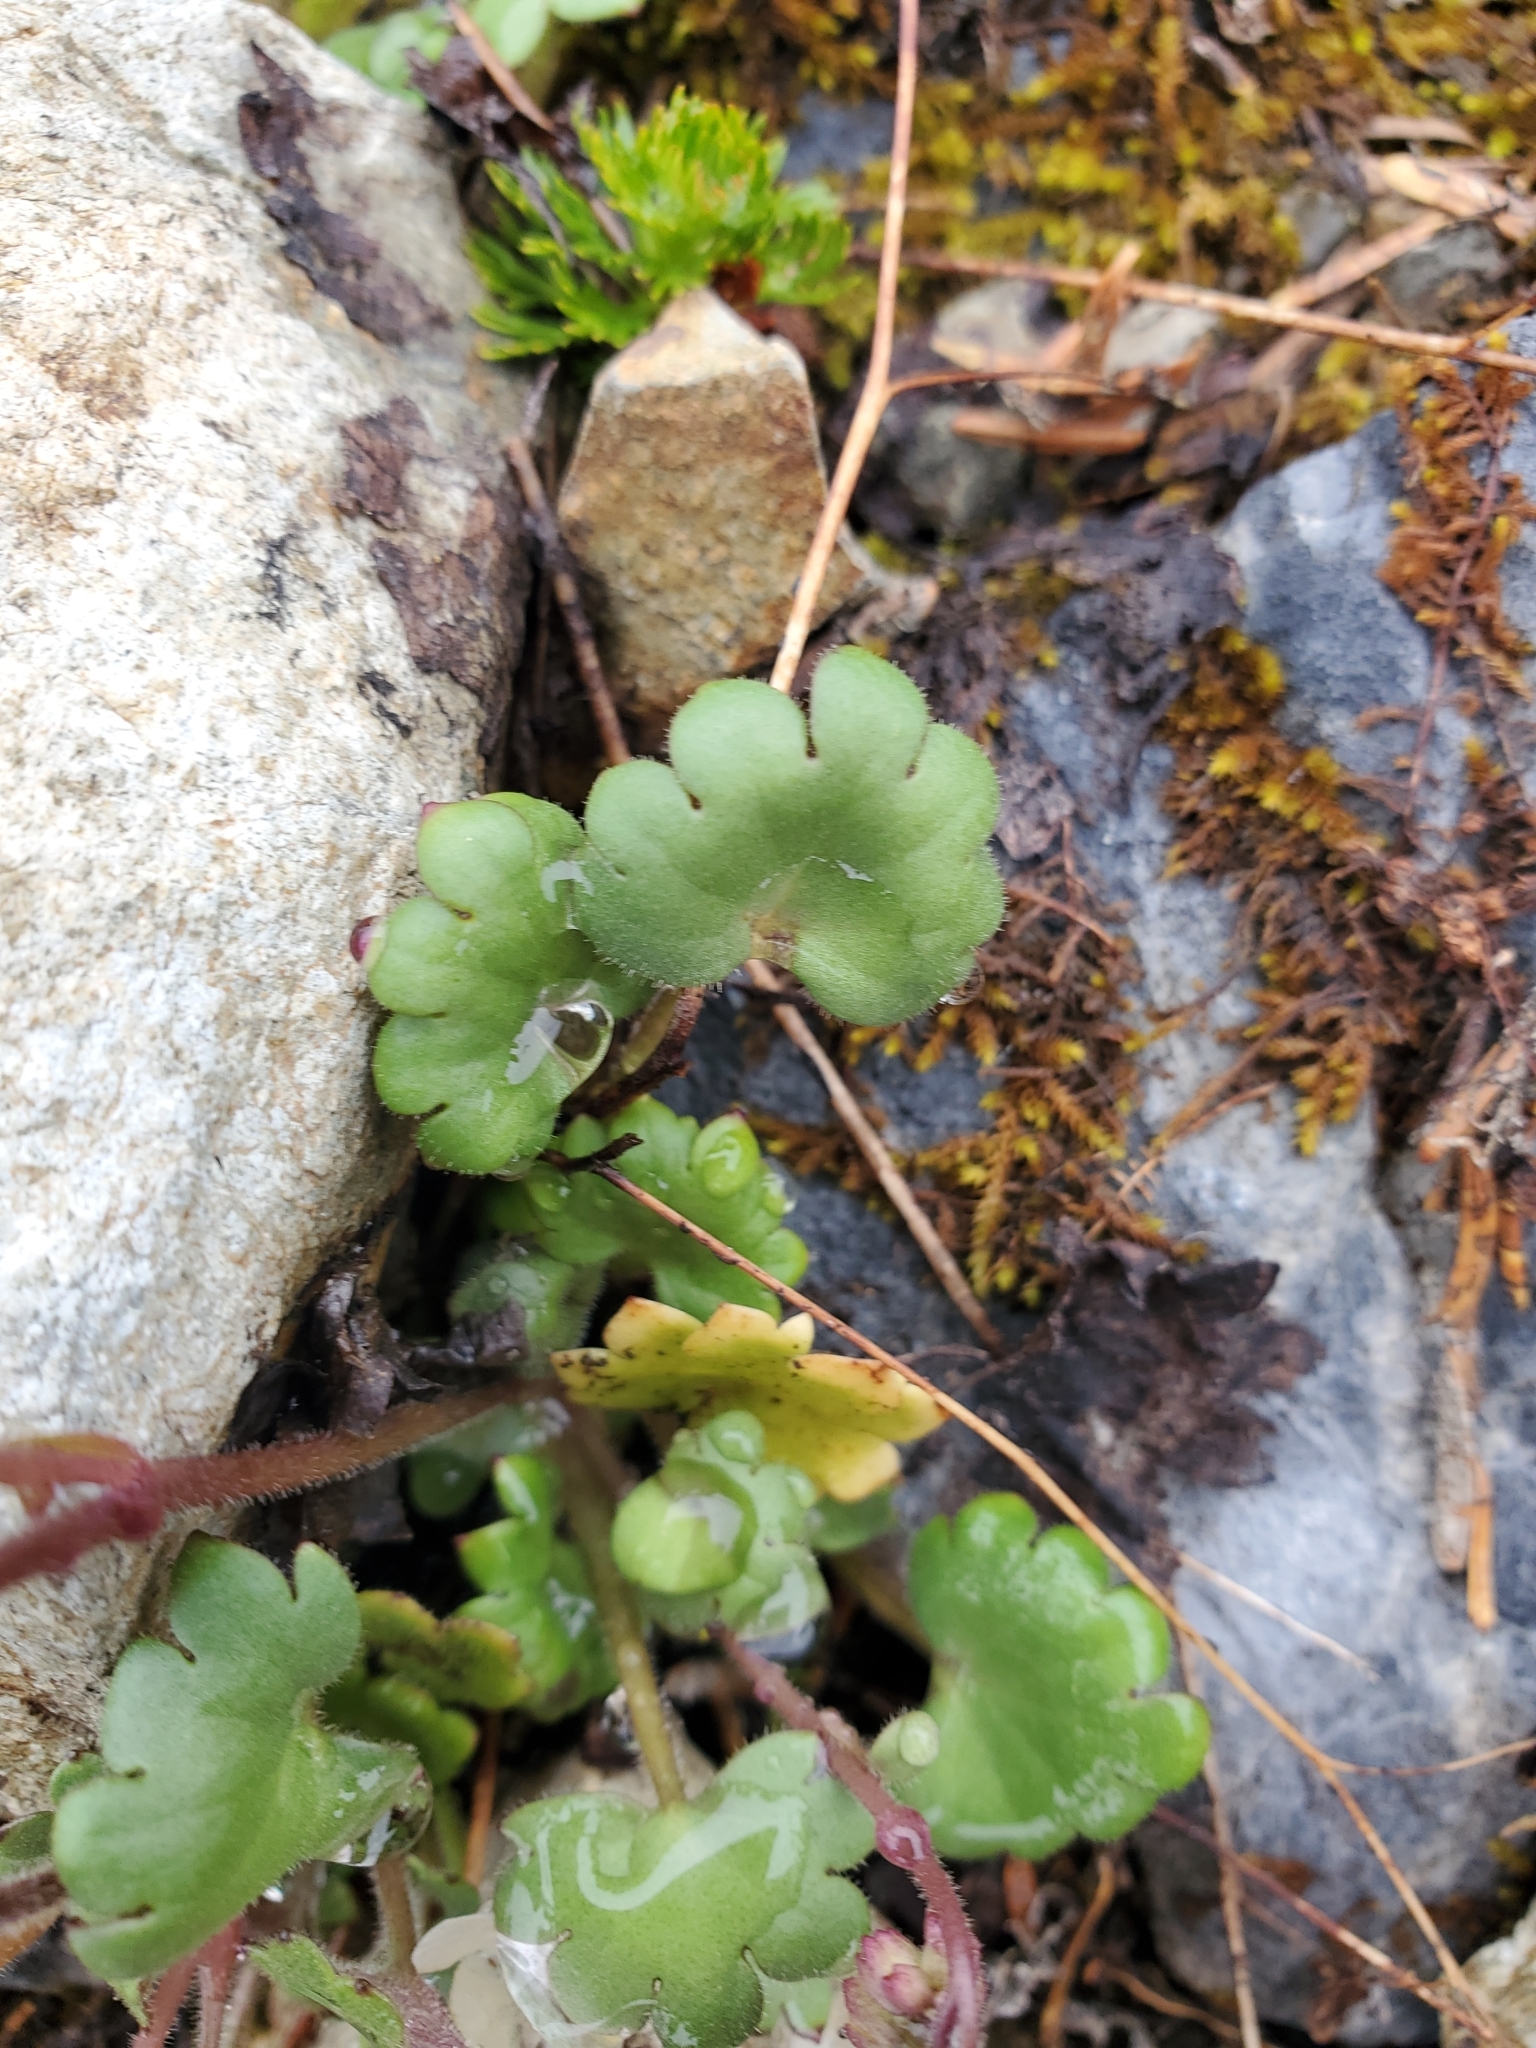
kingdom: Plantae
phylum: Tracheophyta
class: Magnoliopsida
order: Boraginales
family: Hydrophyllaceae
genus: Romanzoffia
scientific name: Romanzoffia sitchensis
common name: Sitka mistmaid
